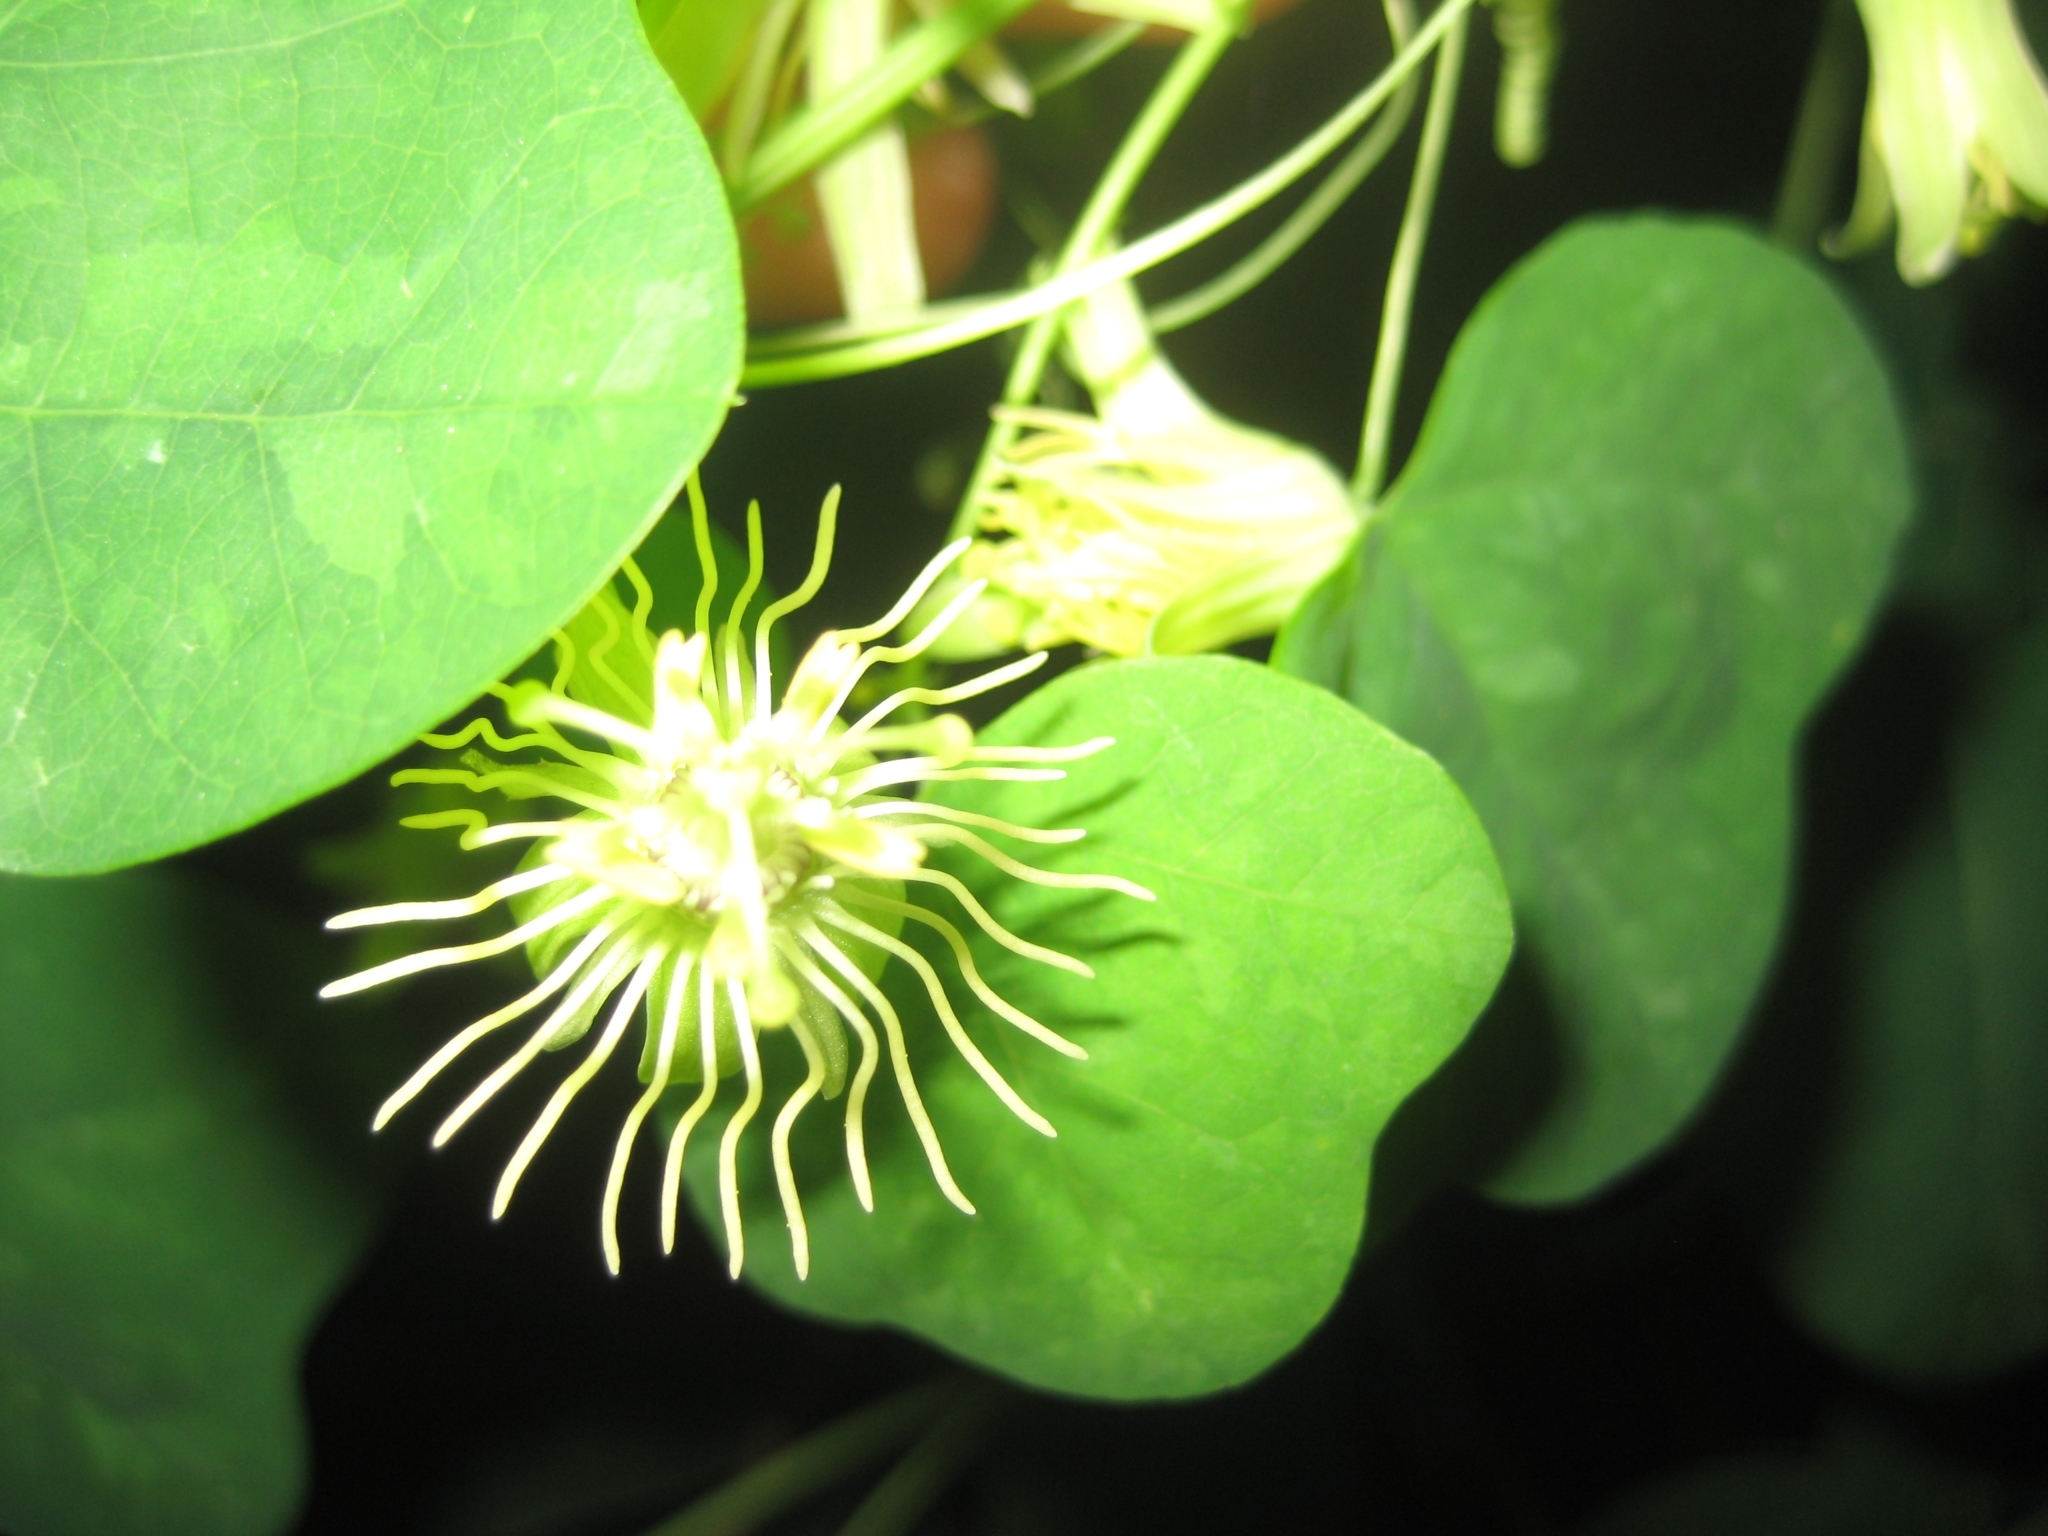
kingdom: Plantae
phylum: Tracheophyta
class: Magnoliopsida
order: Malpighiales
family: Passifloraceae
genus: Passiflora
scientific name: Passiflora lutea
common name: Yellow passionflower
